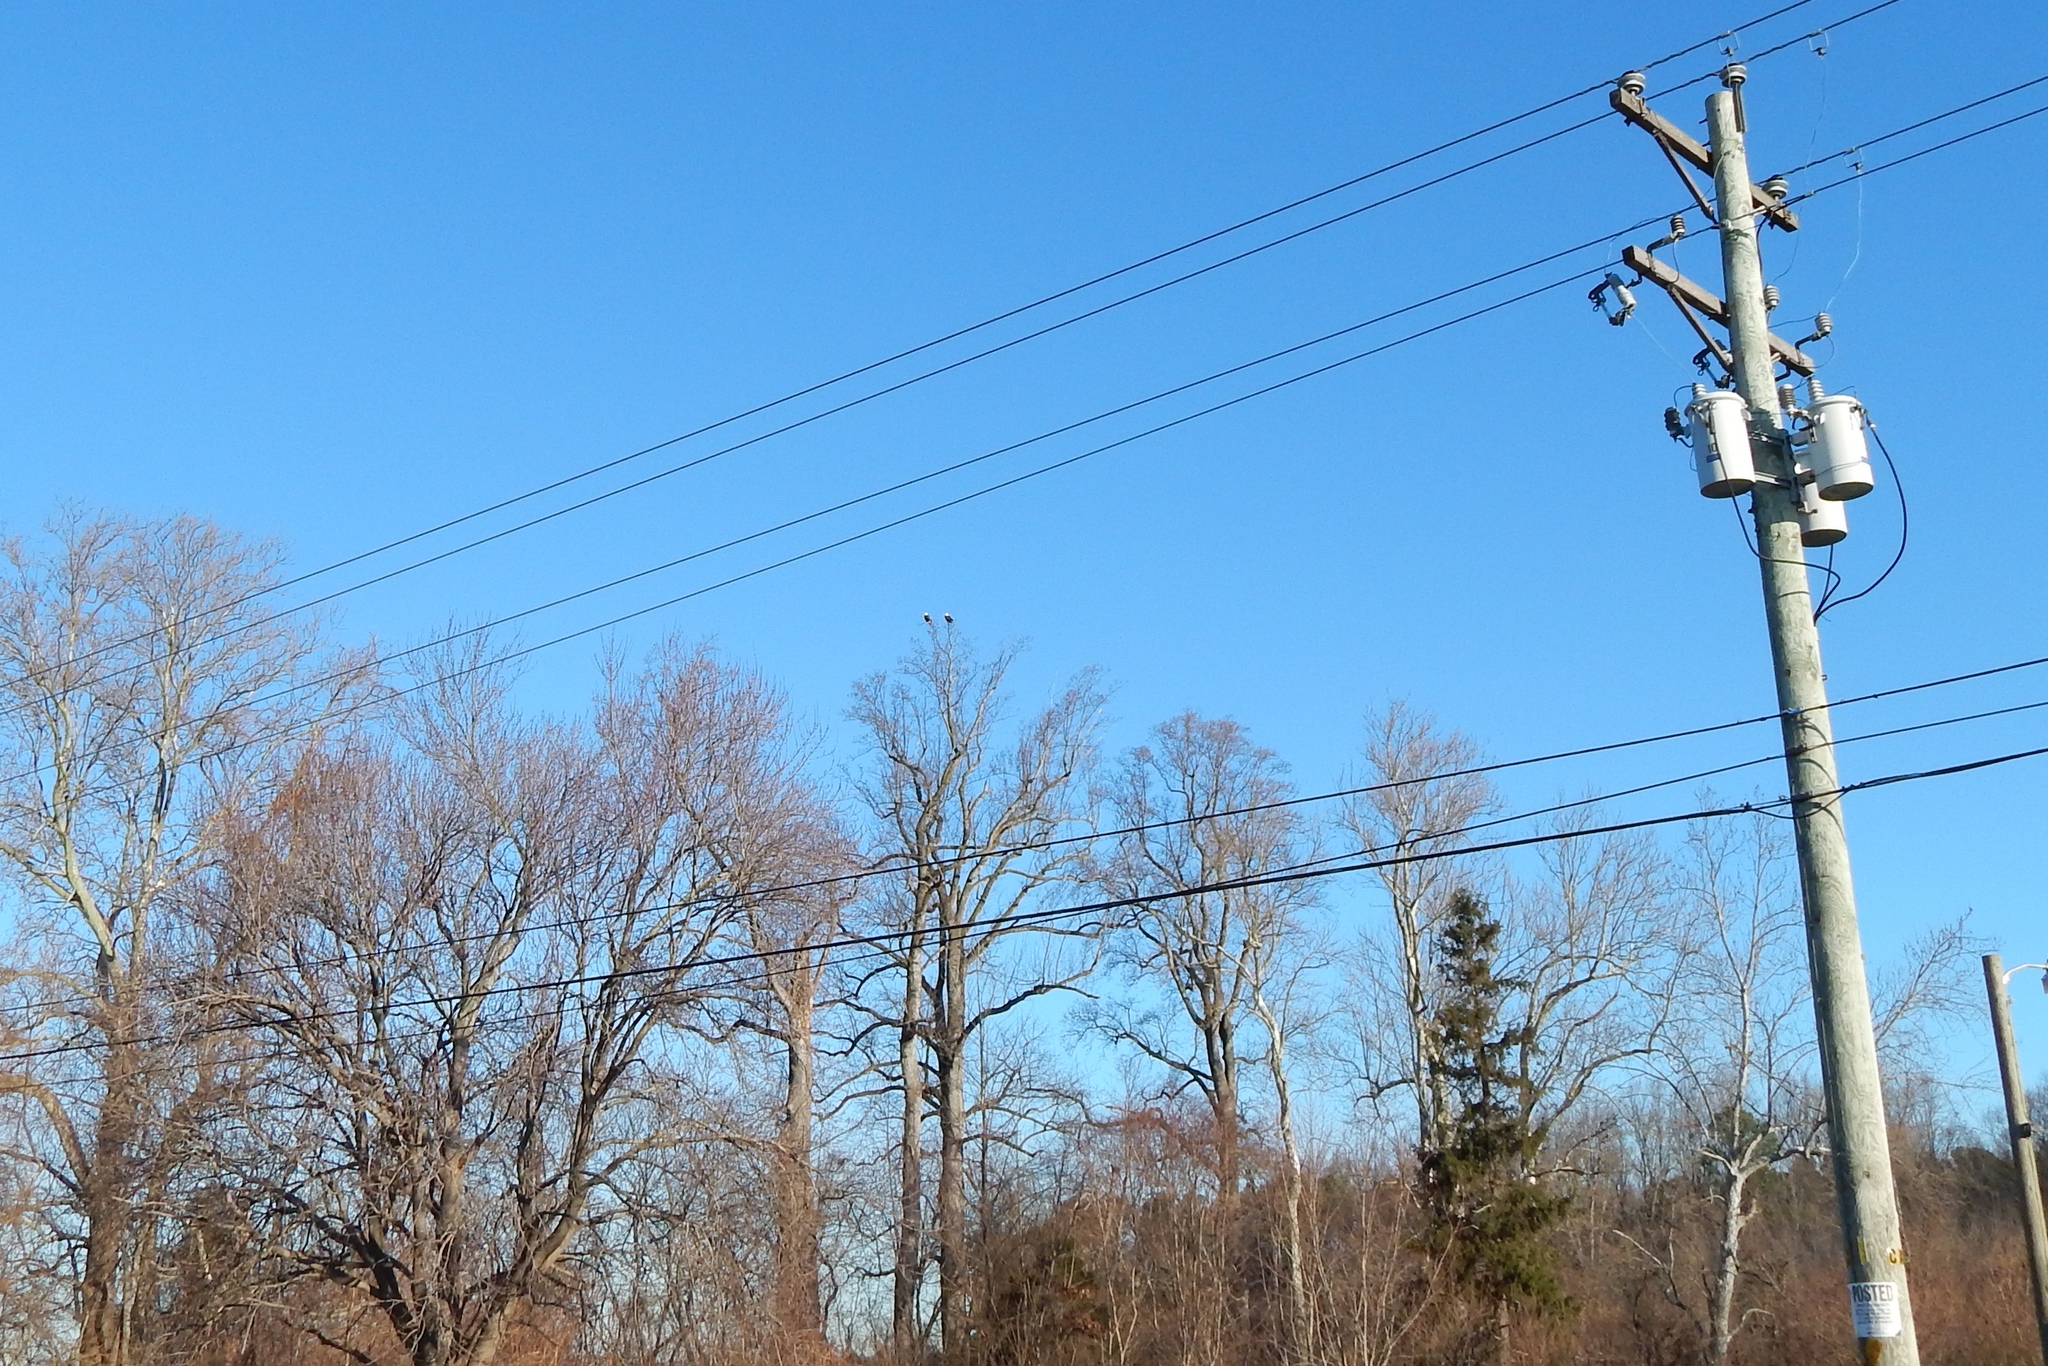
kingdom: Animalia
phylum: Chordata
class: Aves
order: Accipitriformes
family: Accipitridae
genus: Haliaeetus
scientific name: Haliaeetus leucocephalus
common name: Bald eagle
